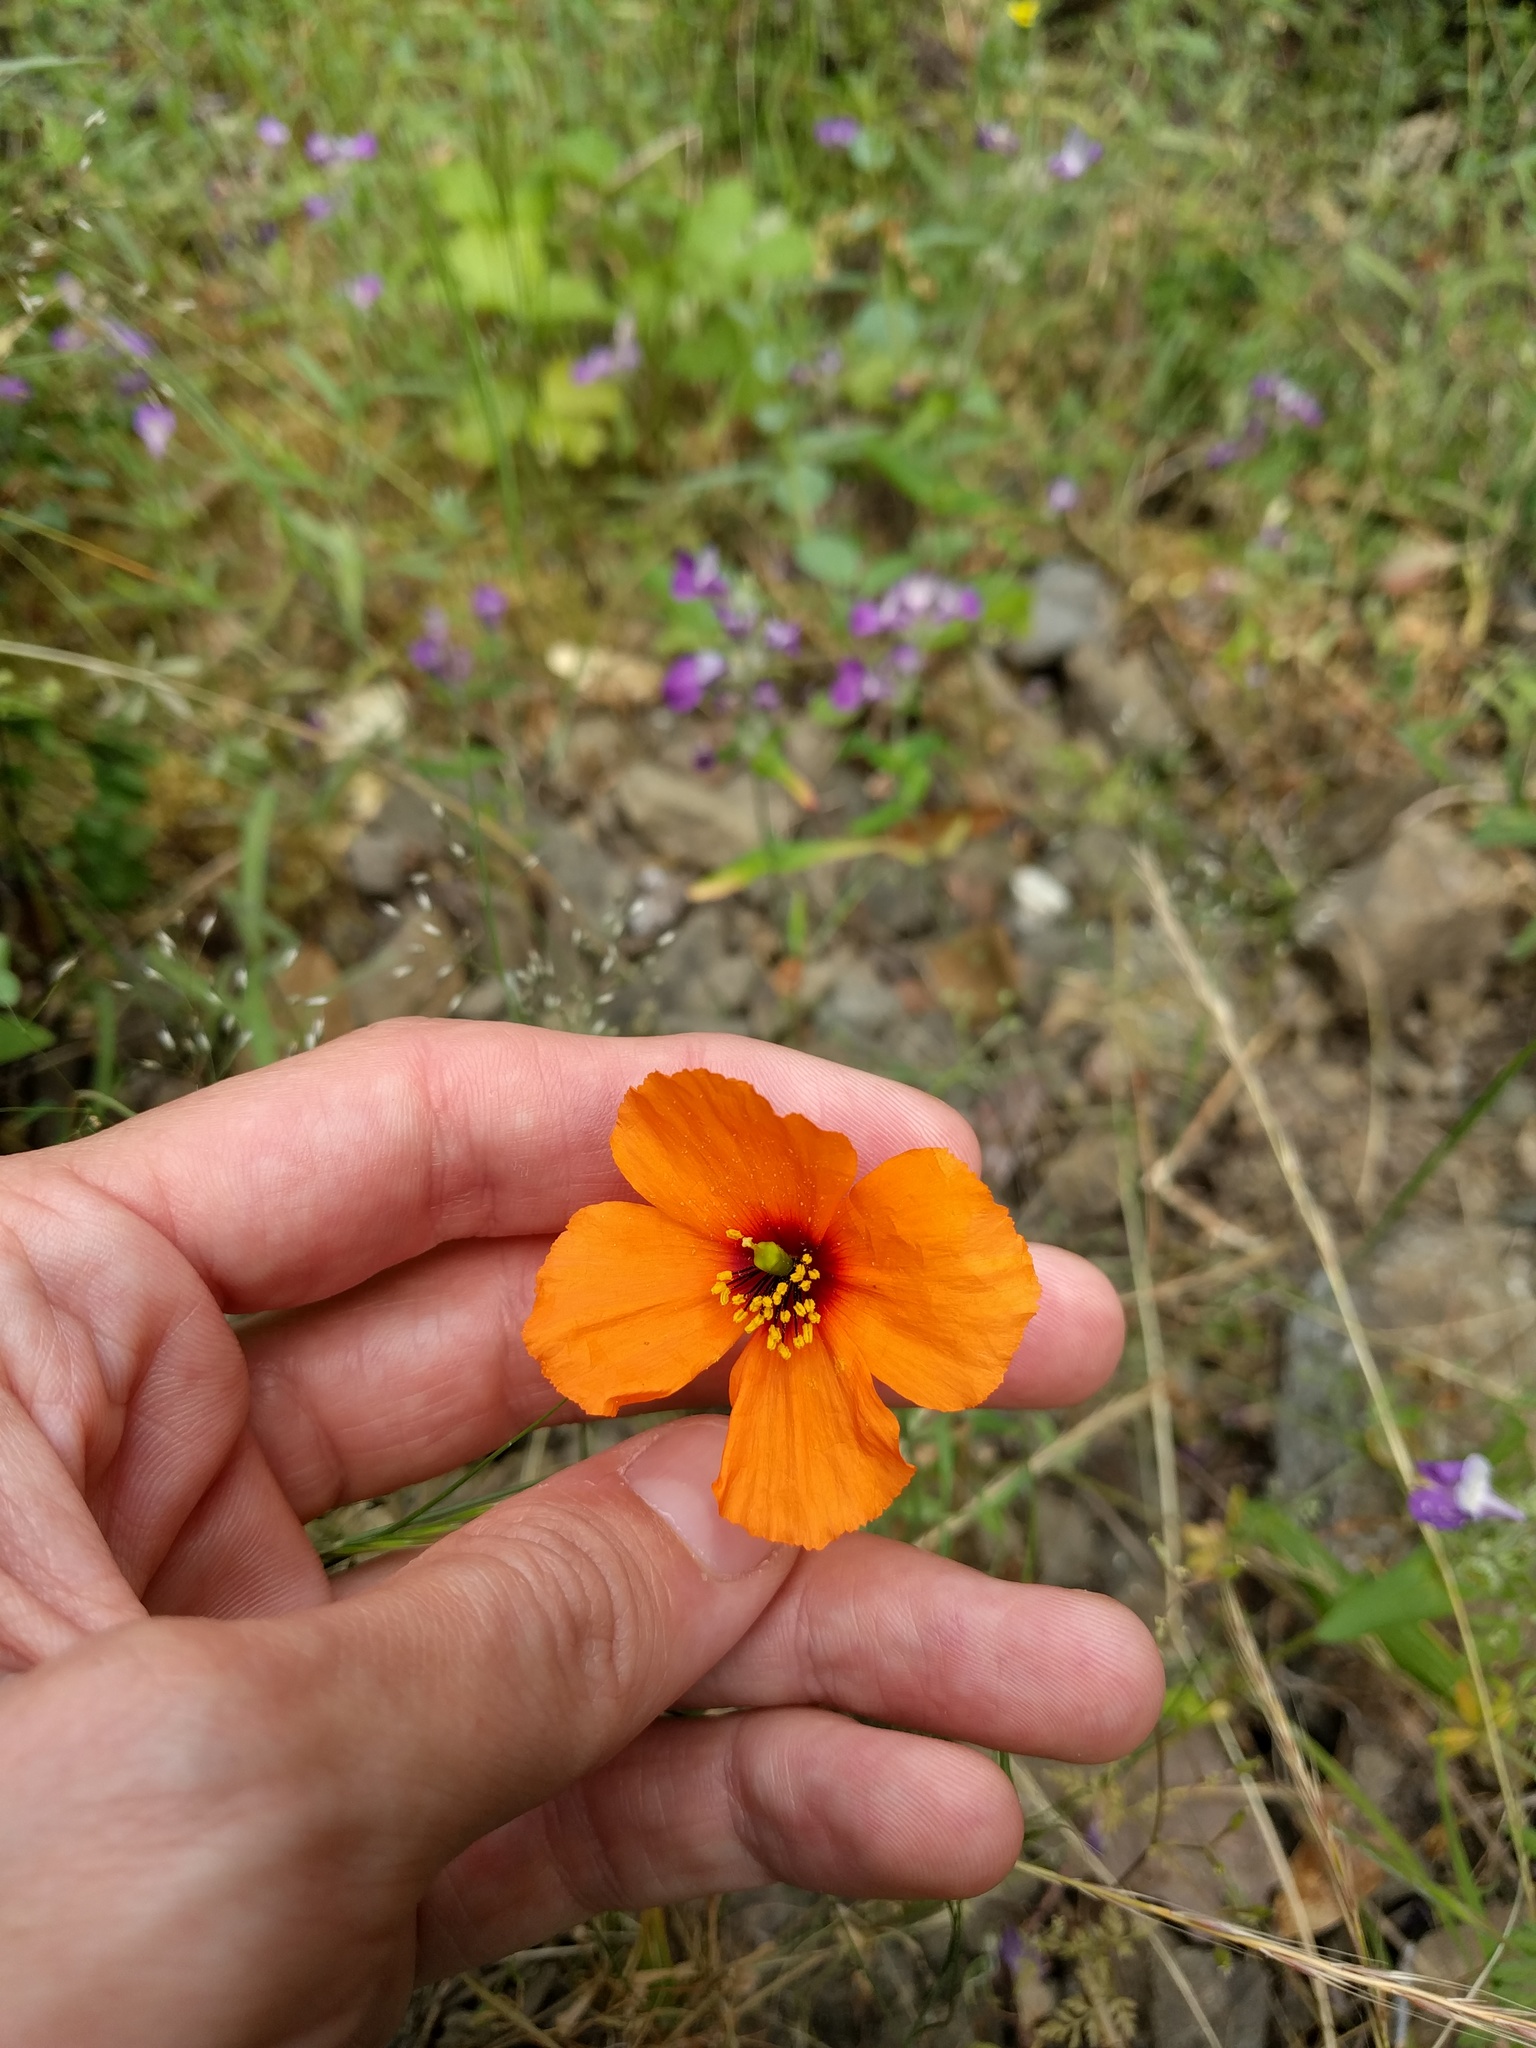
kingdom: Plantae
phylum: Tracheophyta
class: Magnoliopsida
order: Ranunculales
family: Papaveraceae
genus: Stylomecon
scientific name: Stylomecon heterophylla
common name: Flaming-poppy
